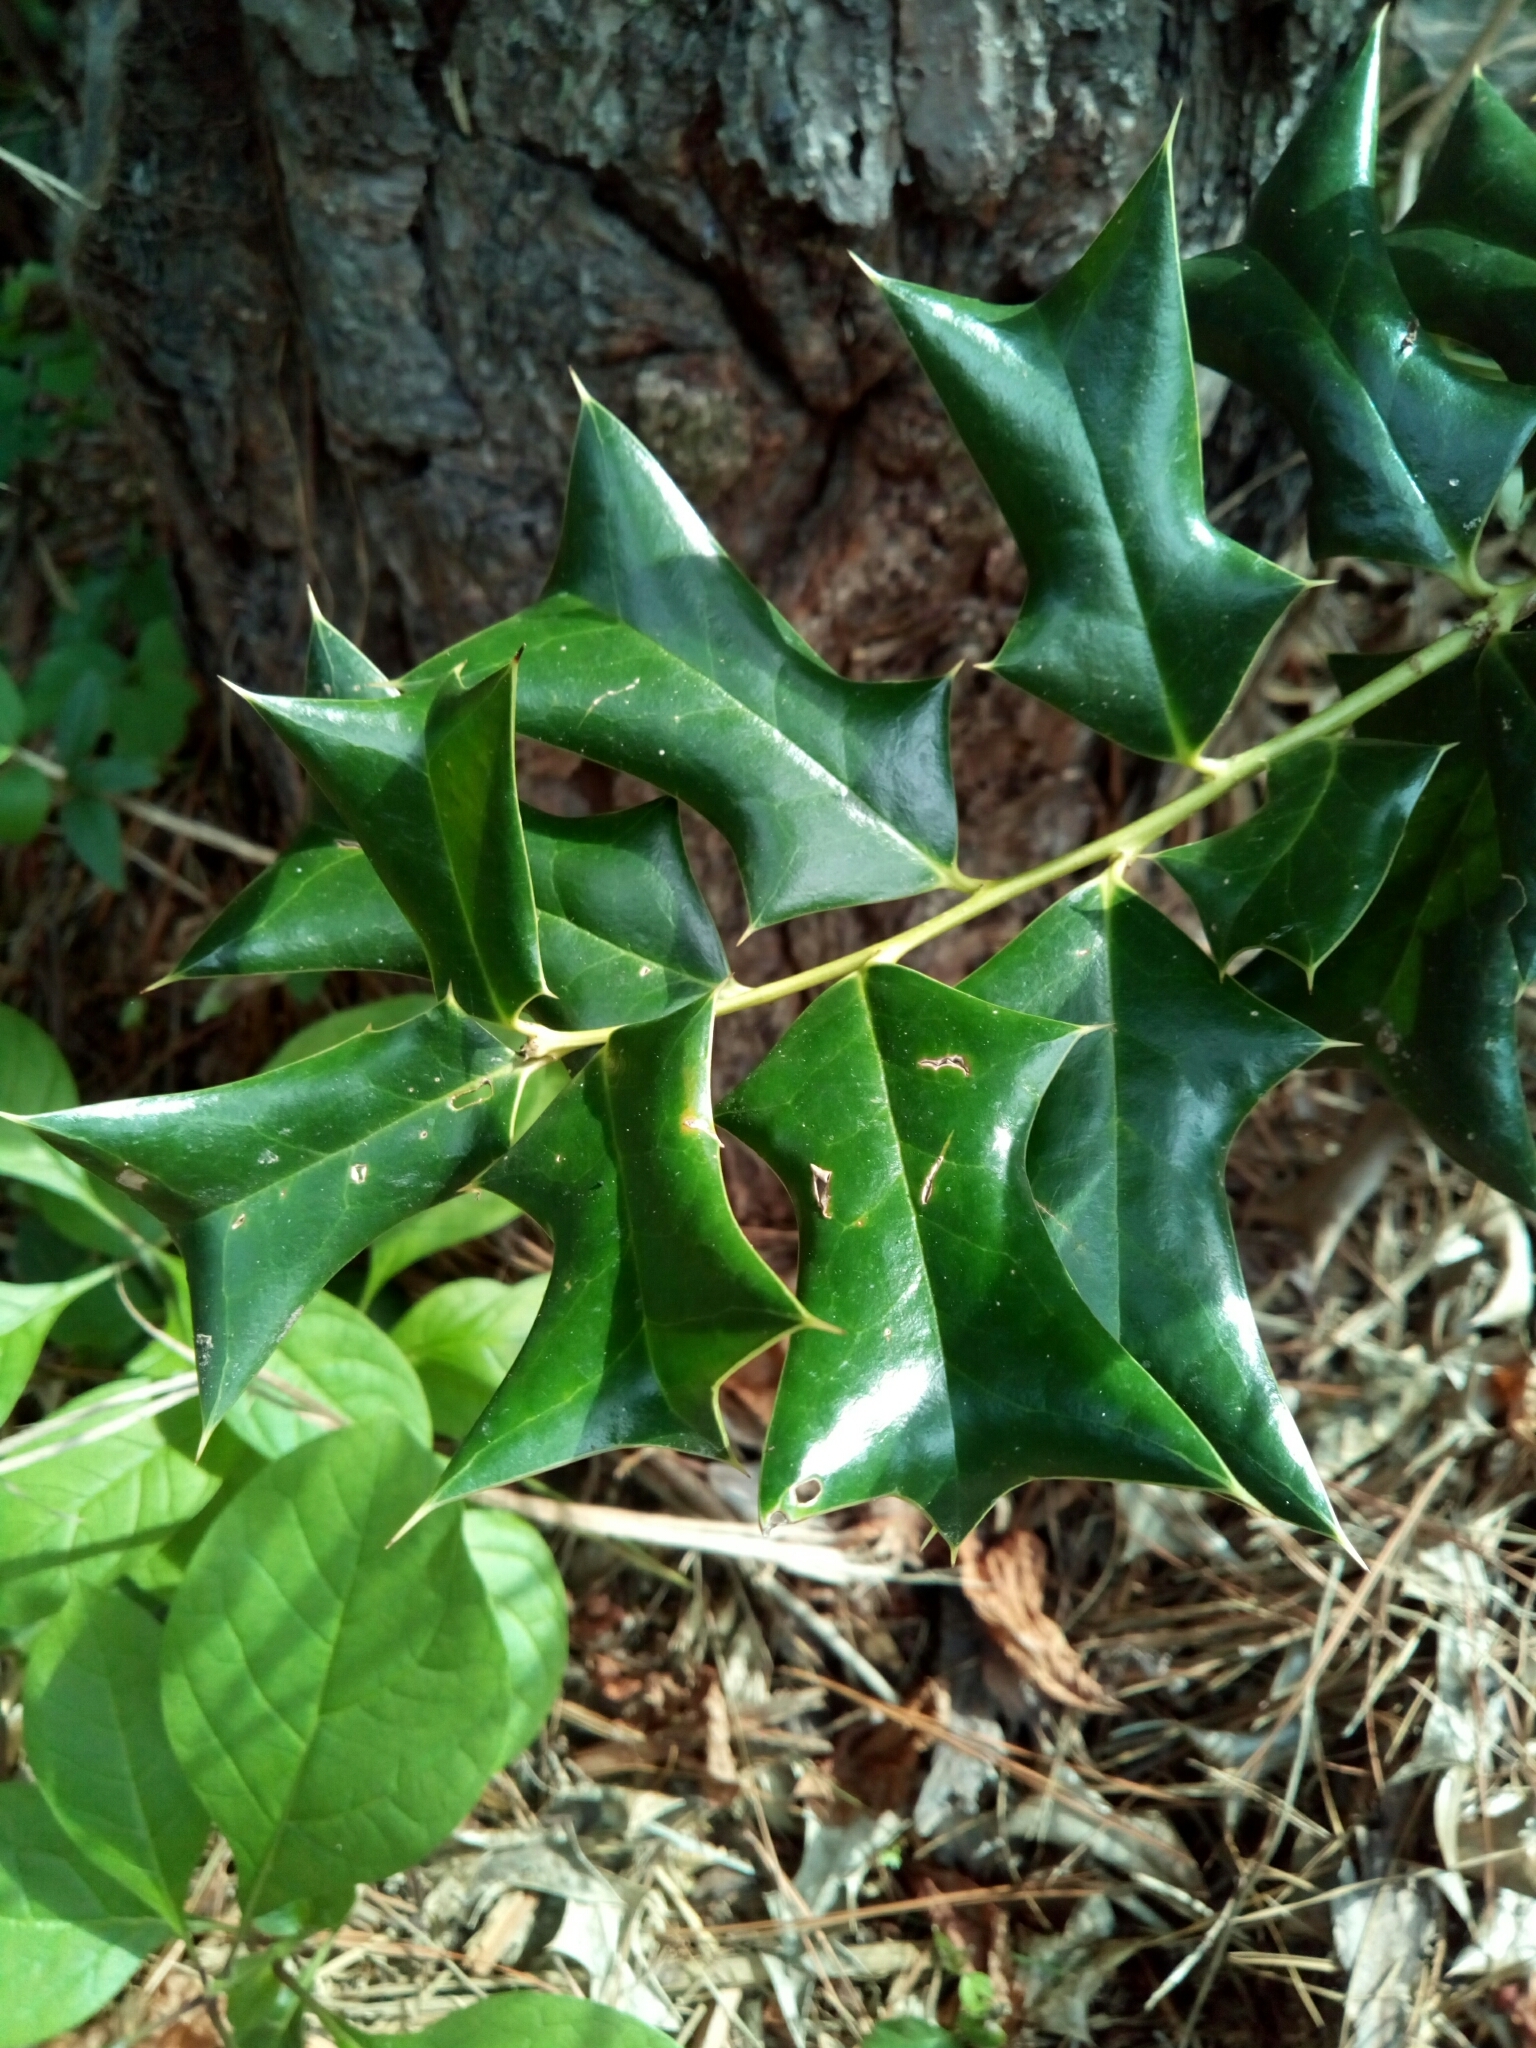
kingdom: Plantae
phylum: Tracheophyta
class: Magnoliopsida
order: Aquifoliales
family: Aquifoliaceae
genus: Ilex
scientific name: Ilex cornuta
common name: Chinese holly
